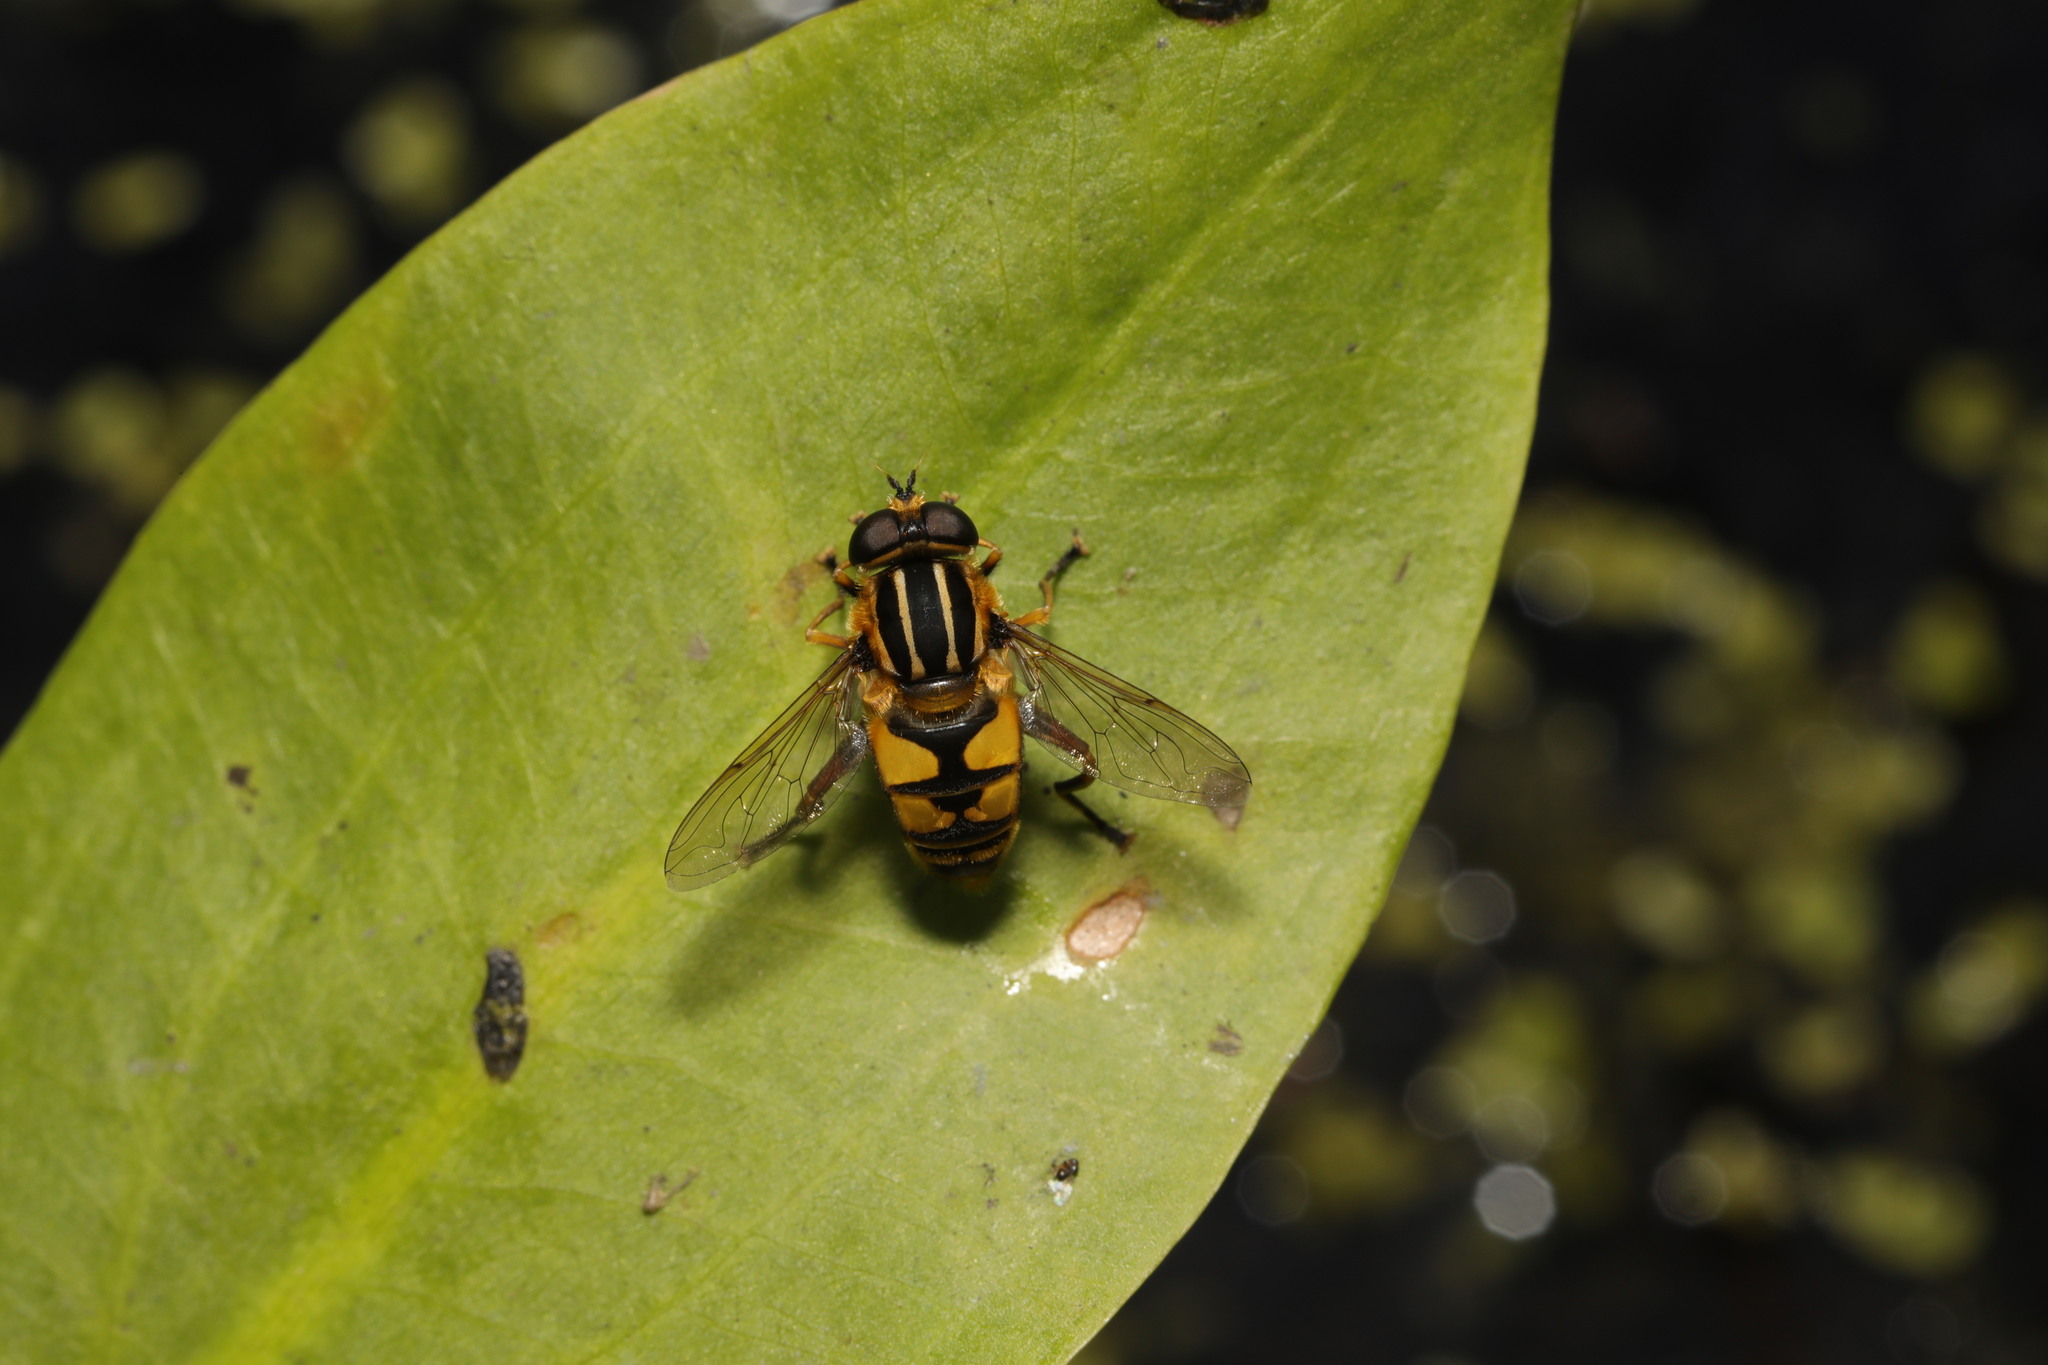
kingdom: Animalia
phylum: Arthropoda
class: Insecta
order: Diptera
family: Syrphidae
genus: Helophilus
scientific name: Helophilus pendulus
